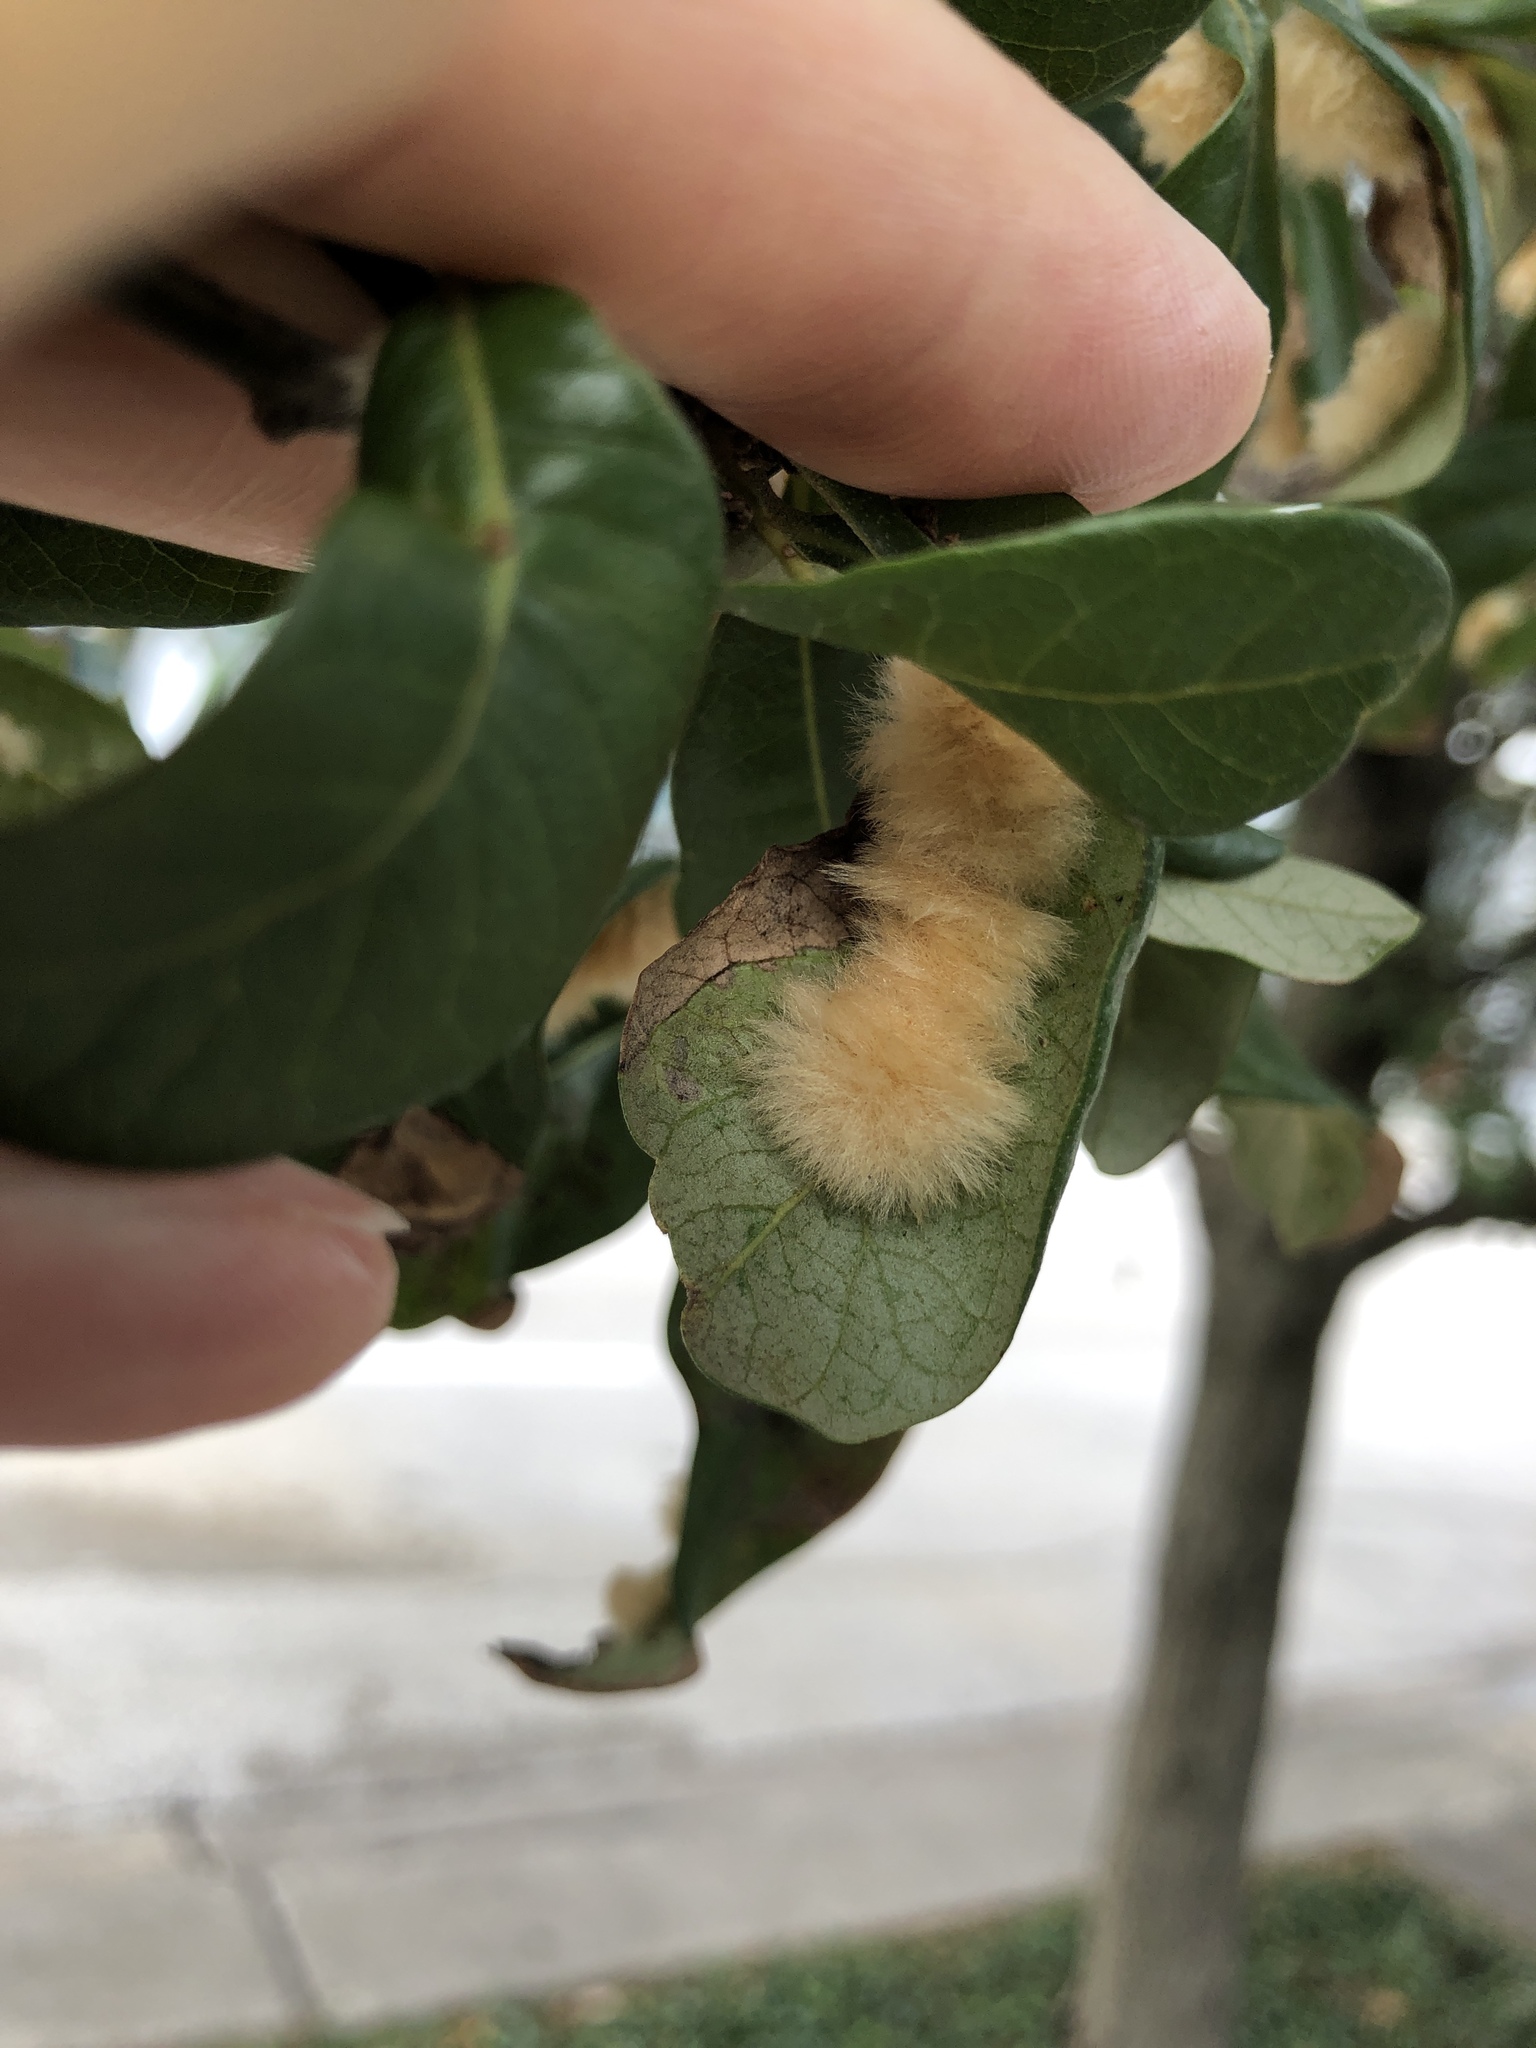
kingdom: Animalia
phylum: Arthropoda
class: Insecta
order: Hymenoptera
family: Cynipidae
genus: Andricus
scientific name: Andricus Druon quercuslanigerum
